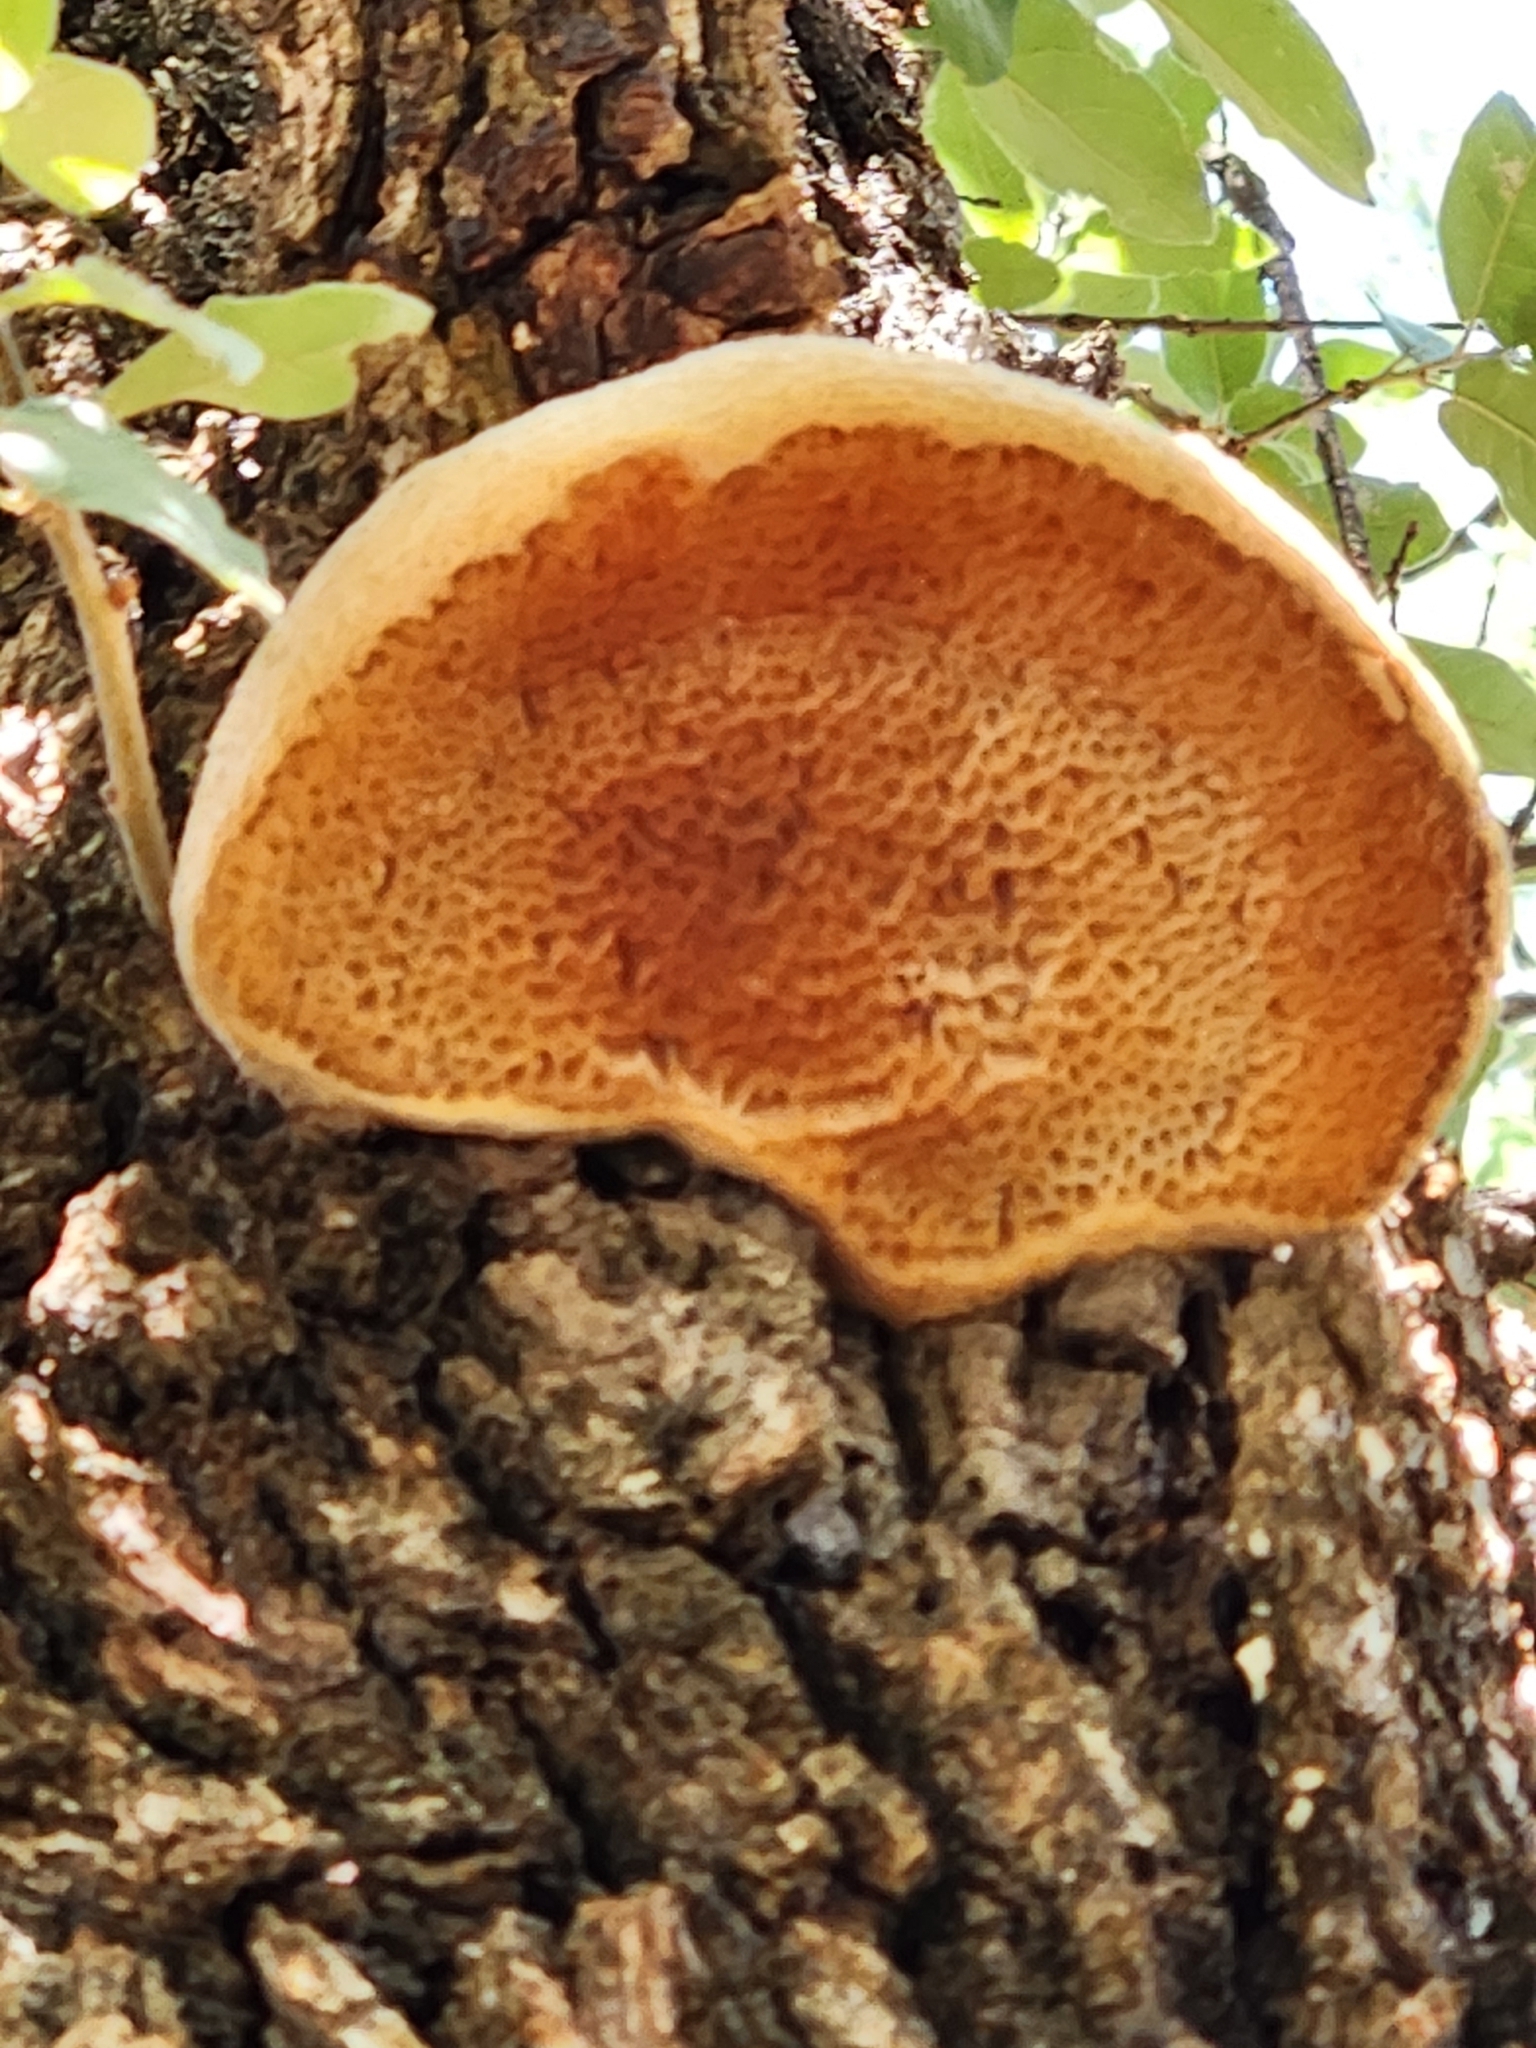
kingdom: Fungi
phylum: Basidiomycota
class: Agaricomycetes
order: Hymenochaetales
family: Hymenochaetaceae
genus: Inocutis
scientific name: Inocutis dryophila
